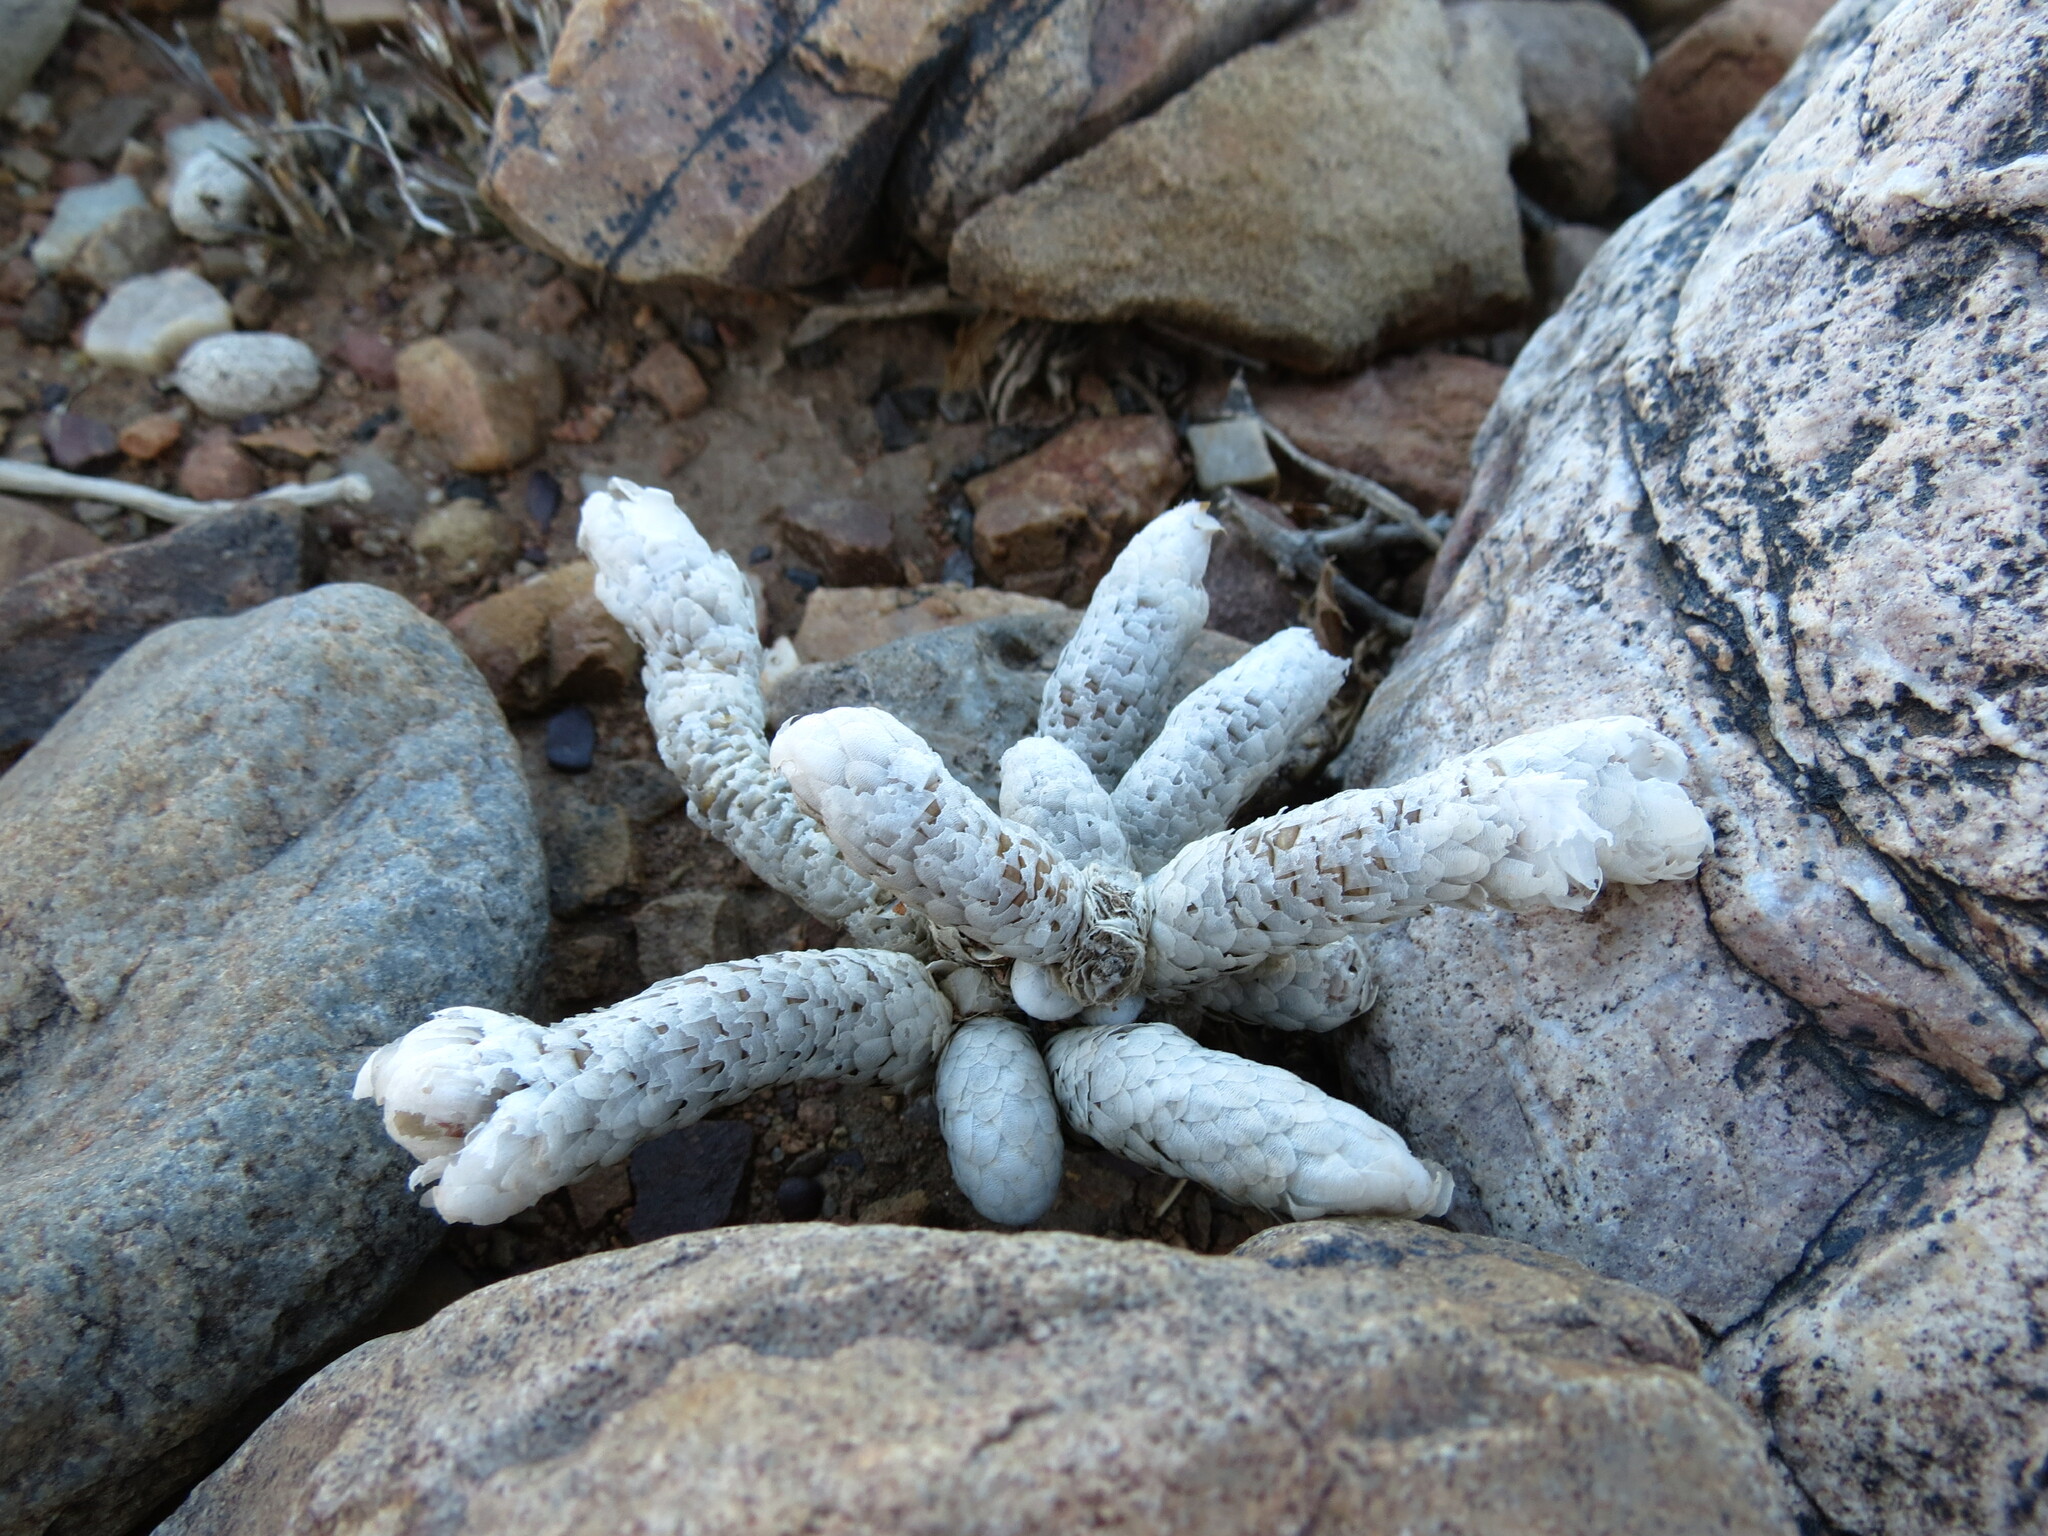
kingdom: Plantae
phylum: Tracheophyta
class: Magnoliopsida
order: Caryophyllales
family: Anacampserotaceae
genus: Avonia
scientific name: Avonia papyracea
